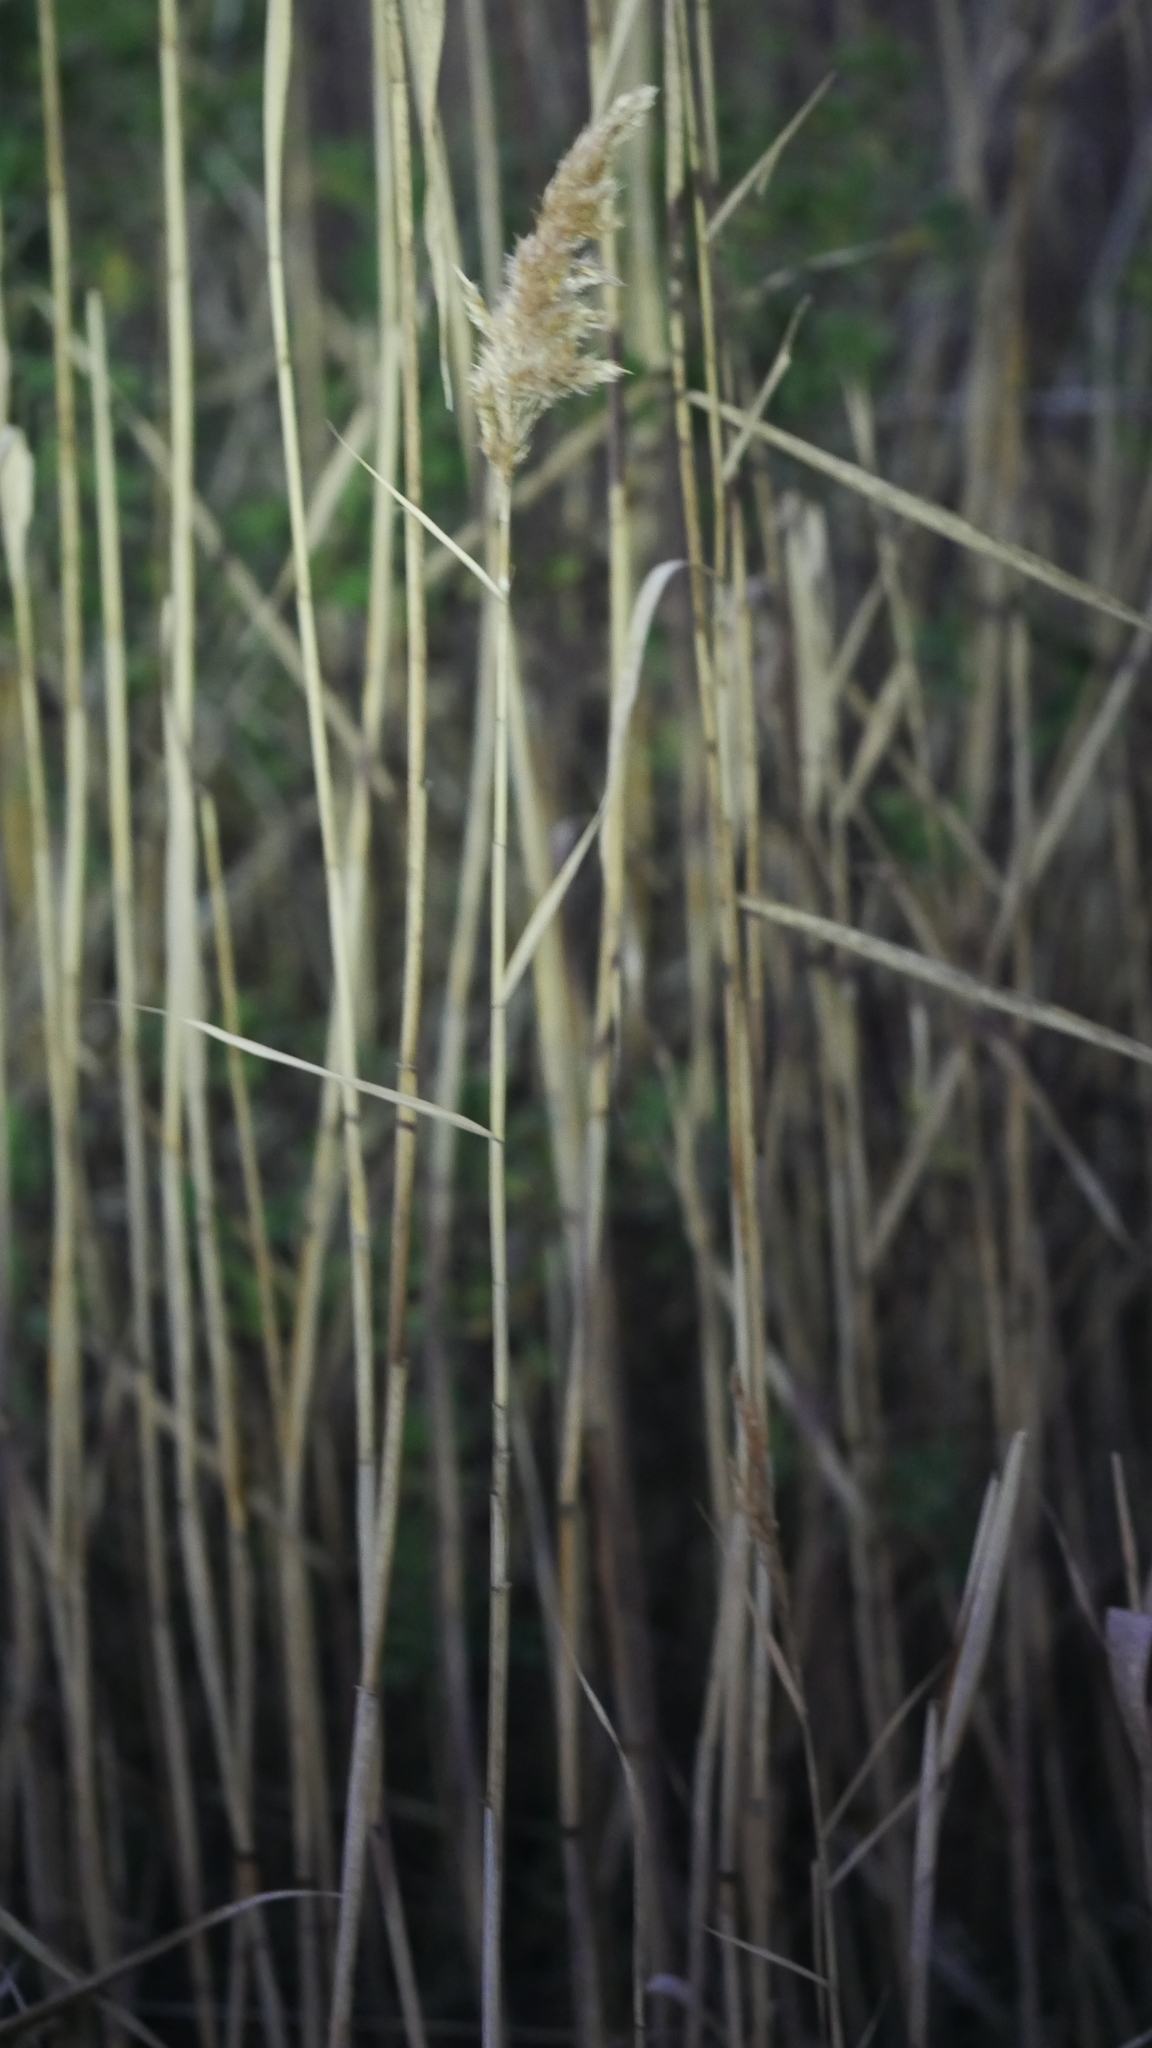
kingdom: Plantae
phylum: Tracheophyta
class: Liliopsida
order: Poales
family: Poaceae
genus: Phragmites
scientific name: Phragmites australis
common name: Common reed
